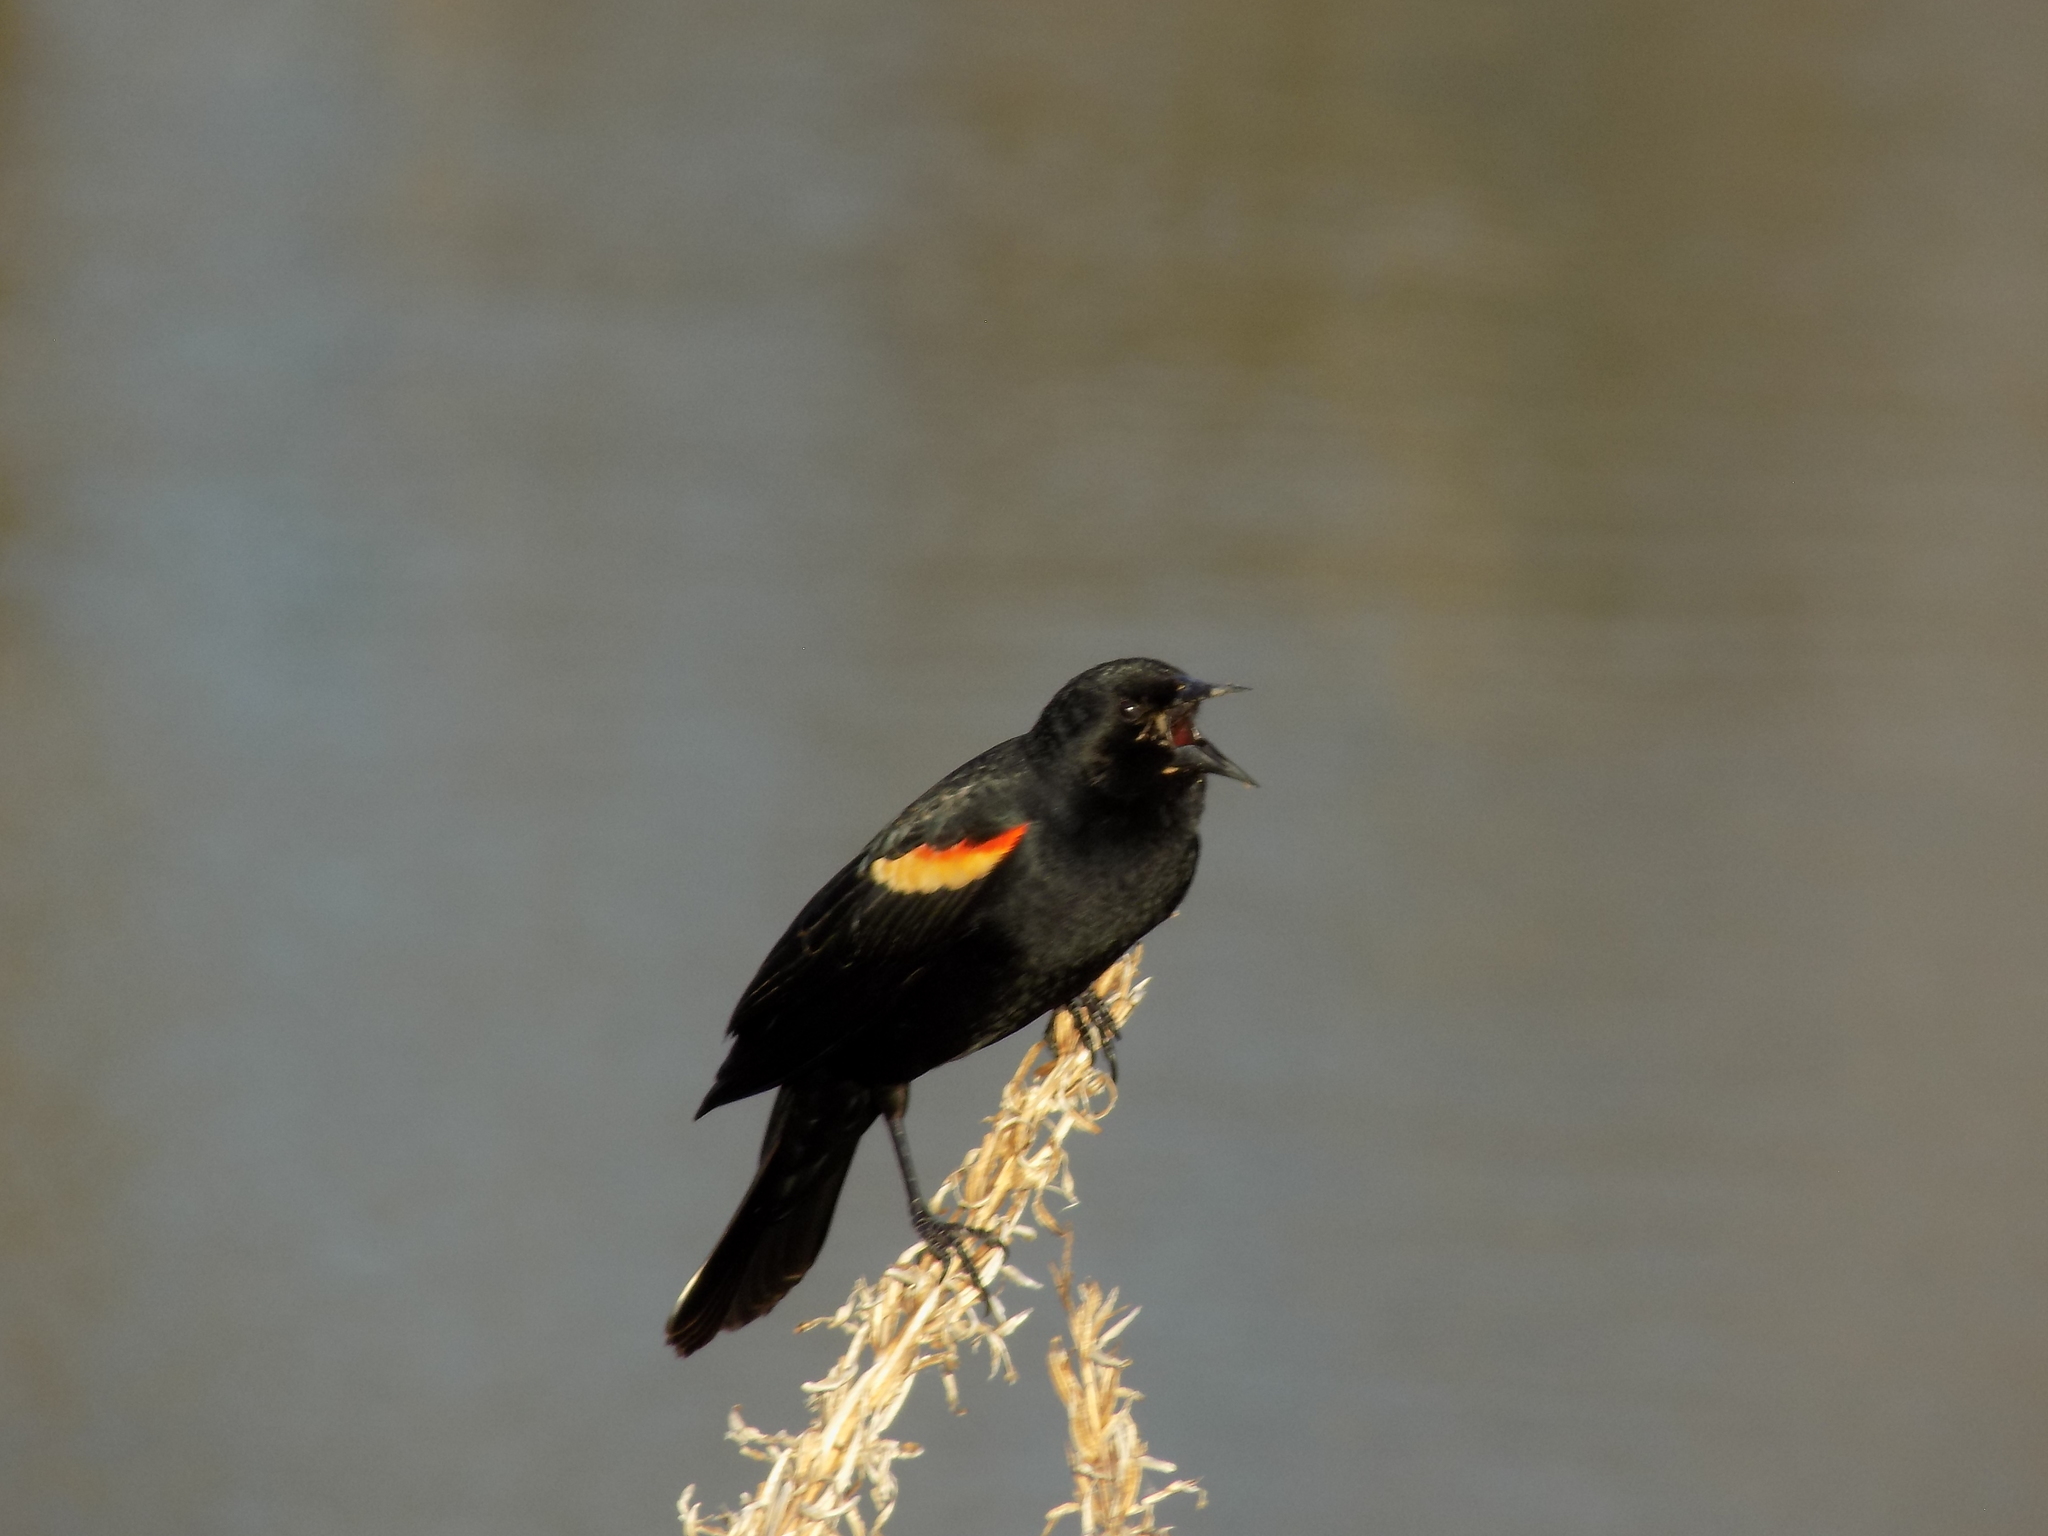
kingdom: Animalia
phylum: Chordata
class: Aves
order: Passeriformes
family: Icteridae
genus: Agelaius
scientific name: Agelaius phoeniceus
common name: Red-winged blackbird
